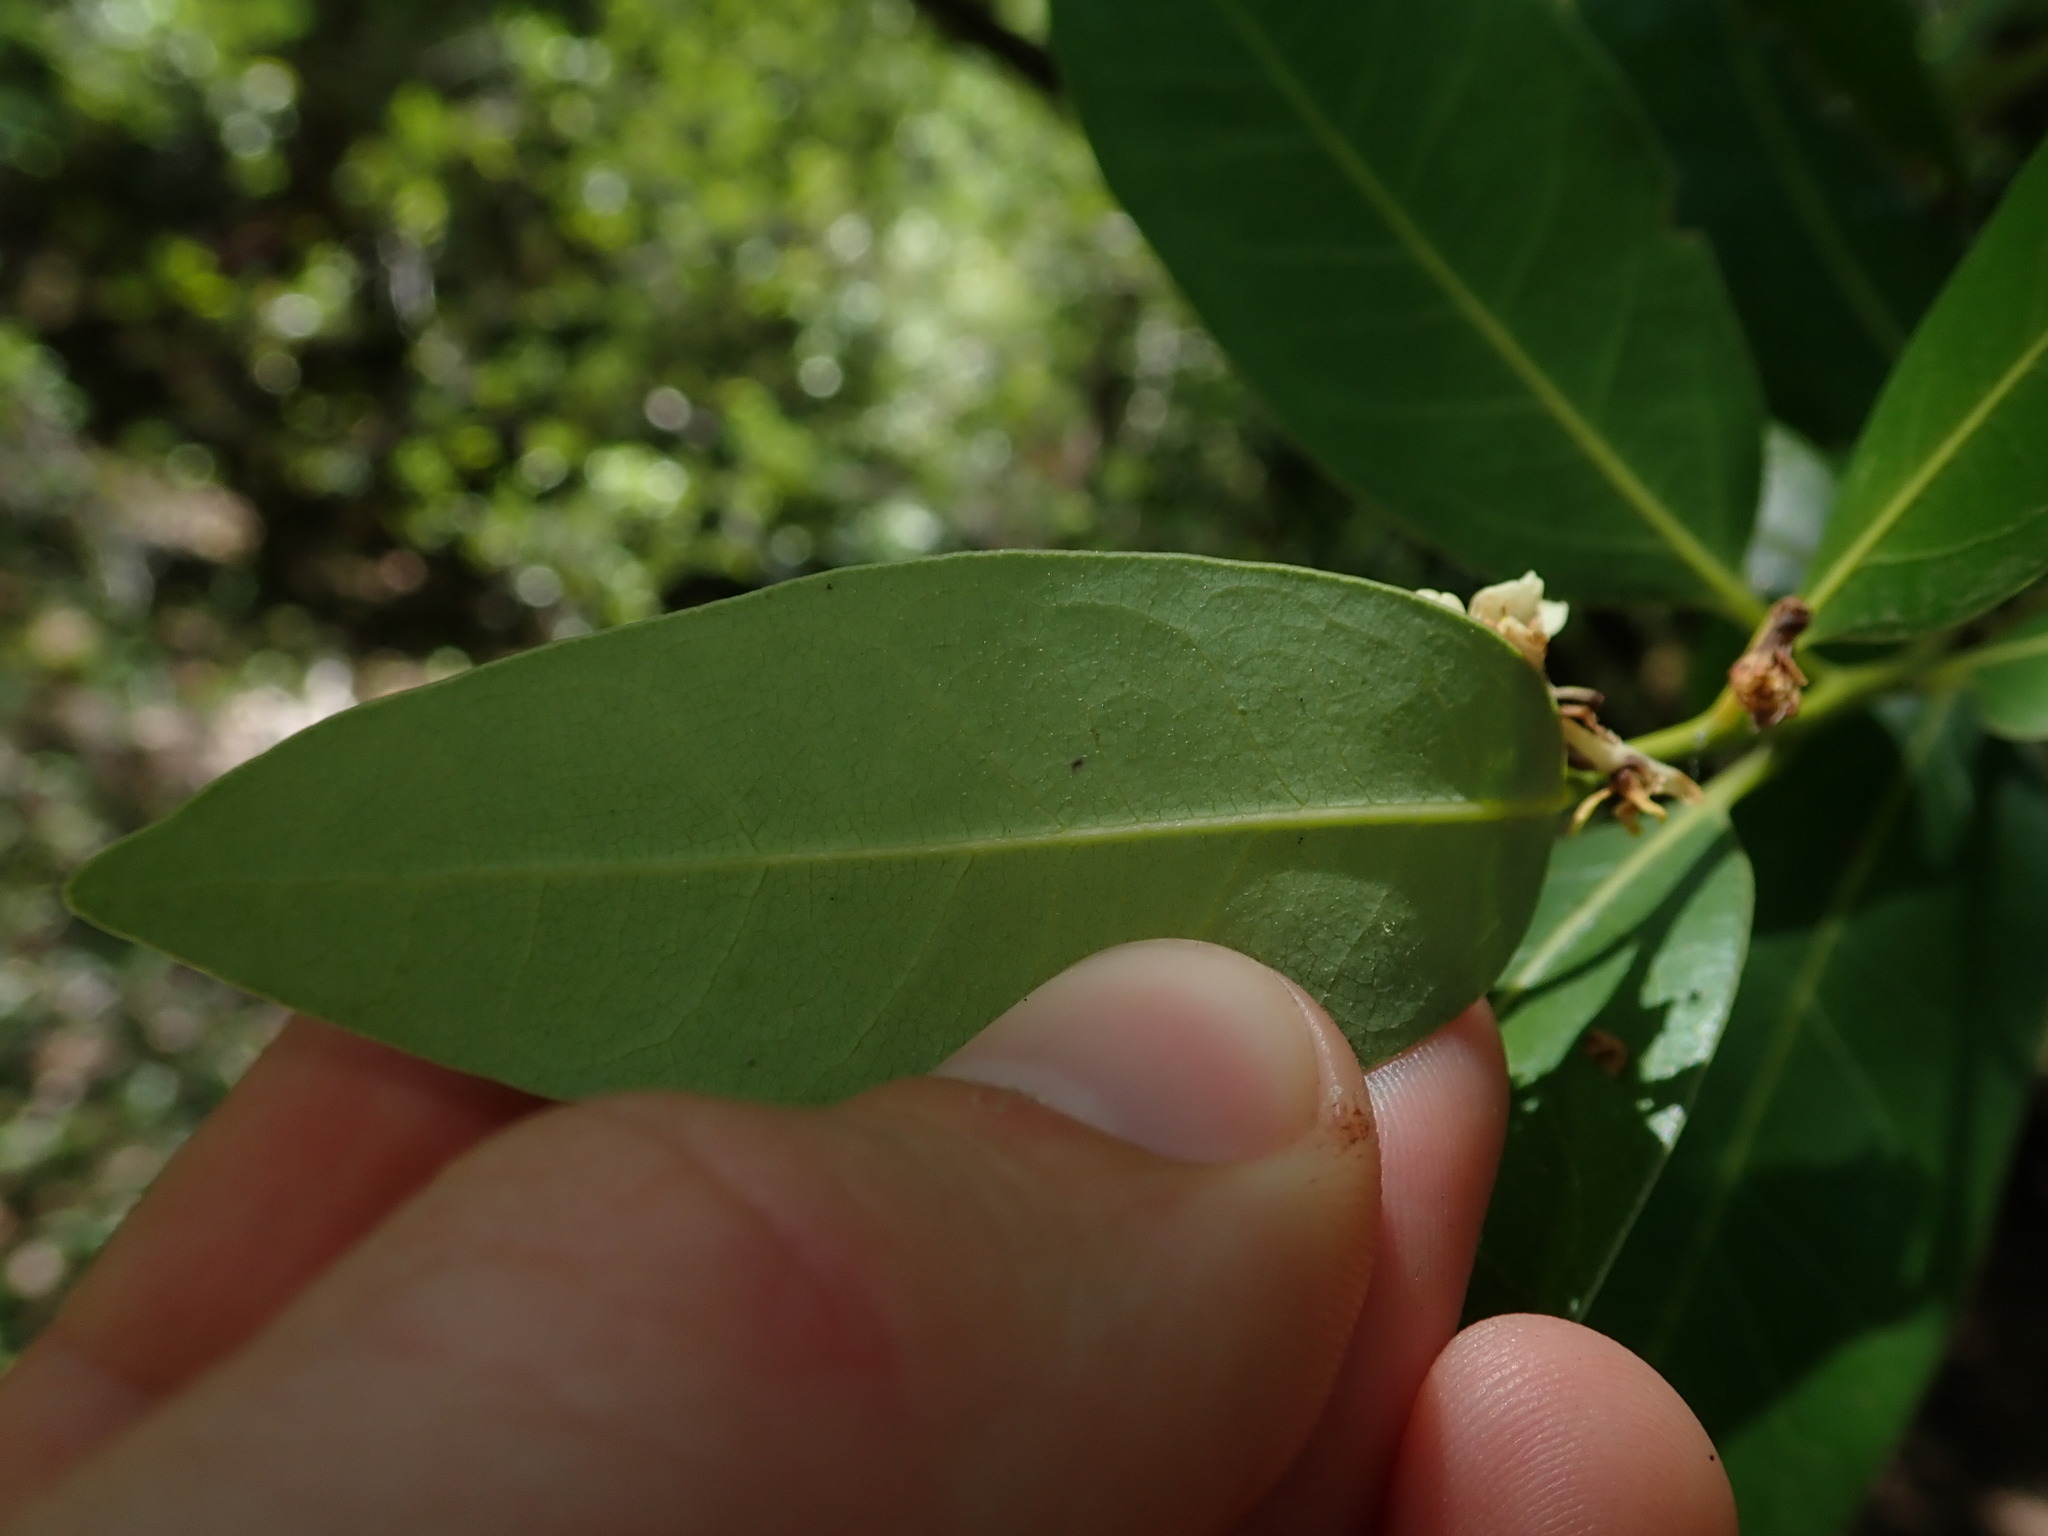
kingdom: Plantae
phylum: Tracheophyta
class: Magnoliopsida
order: Laurales
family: Lauraceae
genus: Umbellularia
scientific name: Umbellularia californica
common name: California bay
